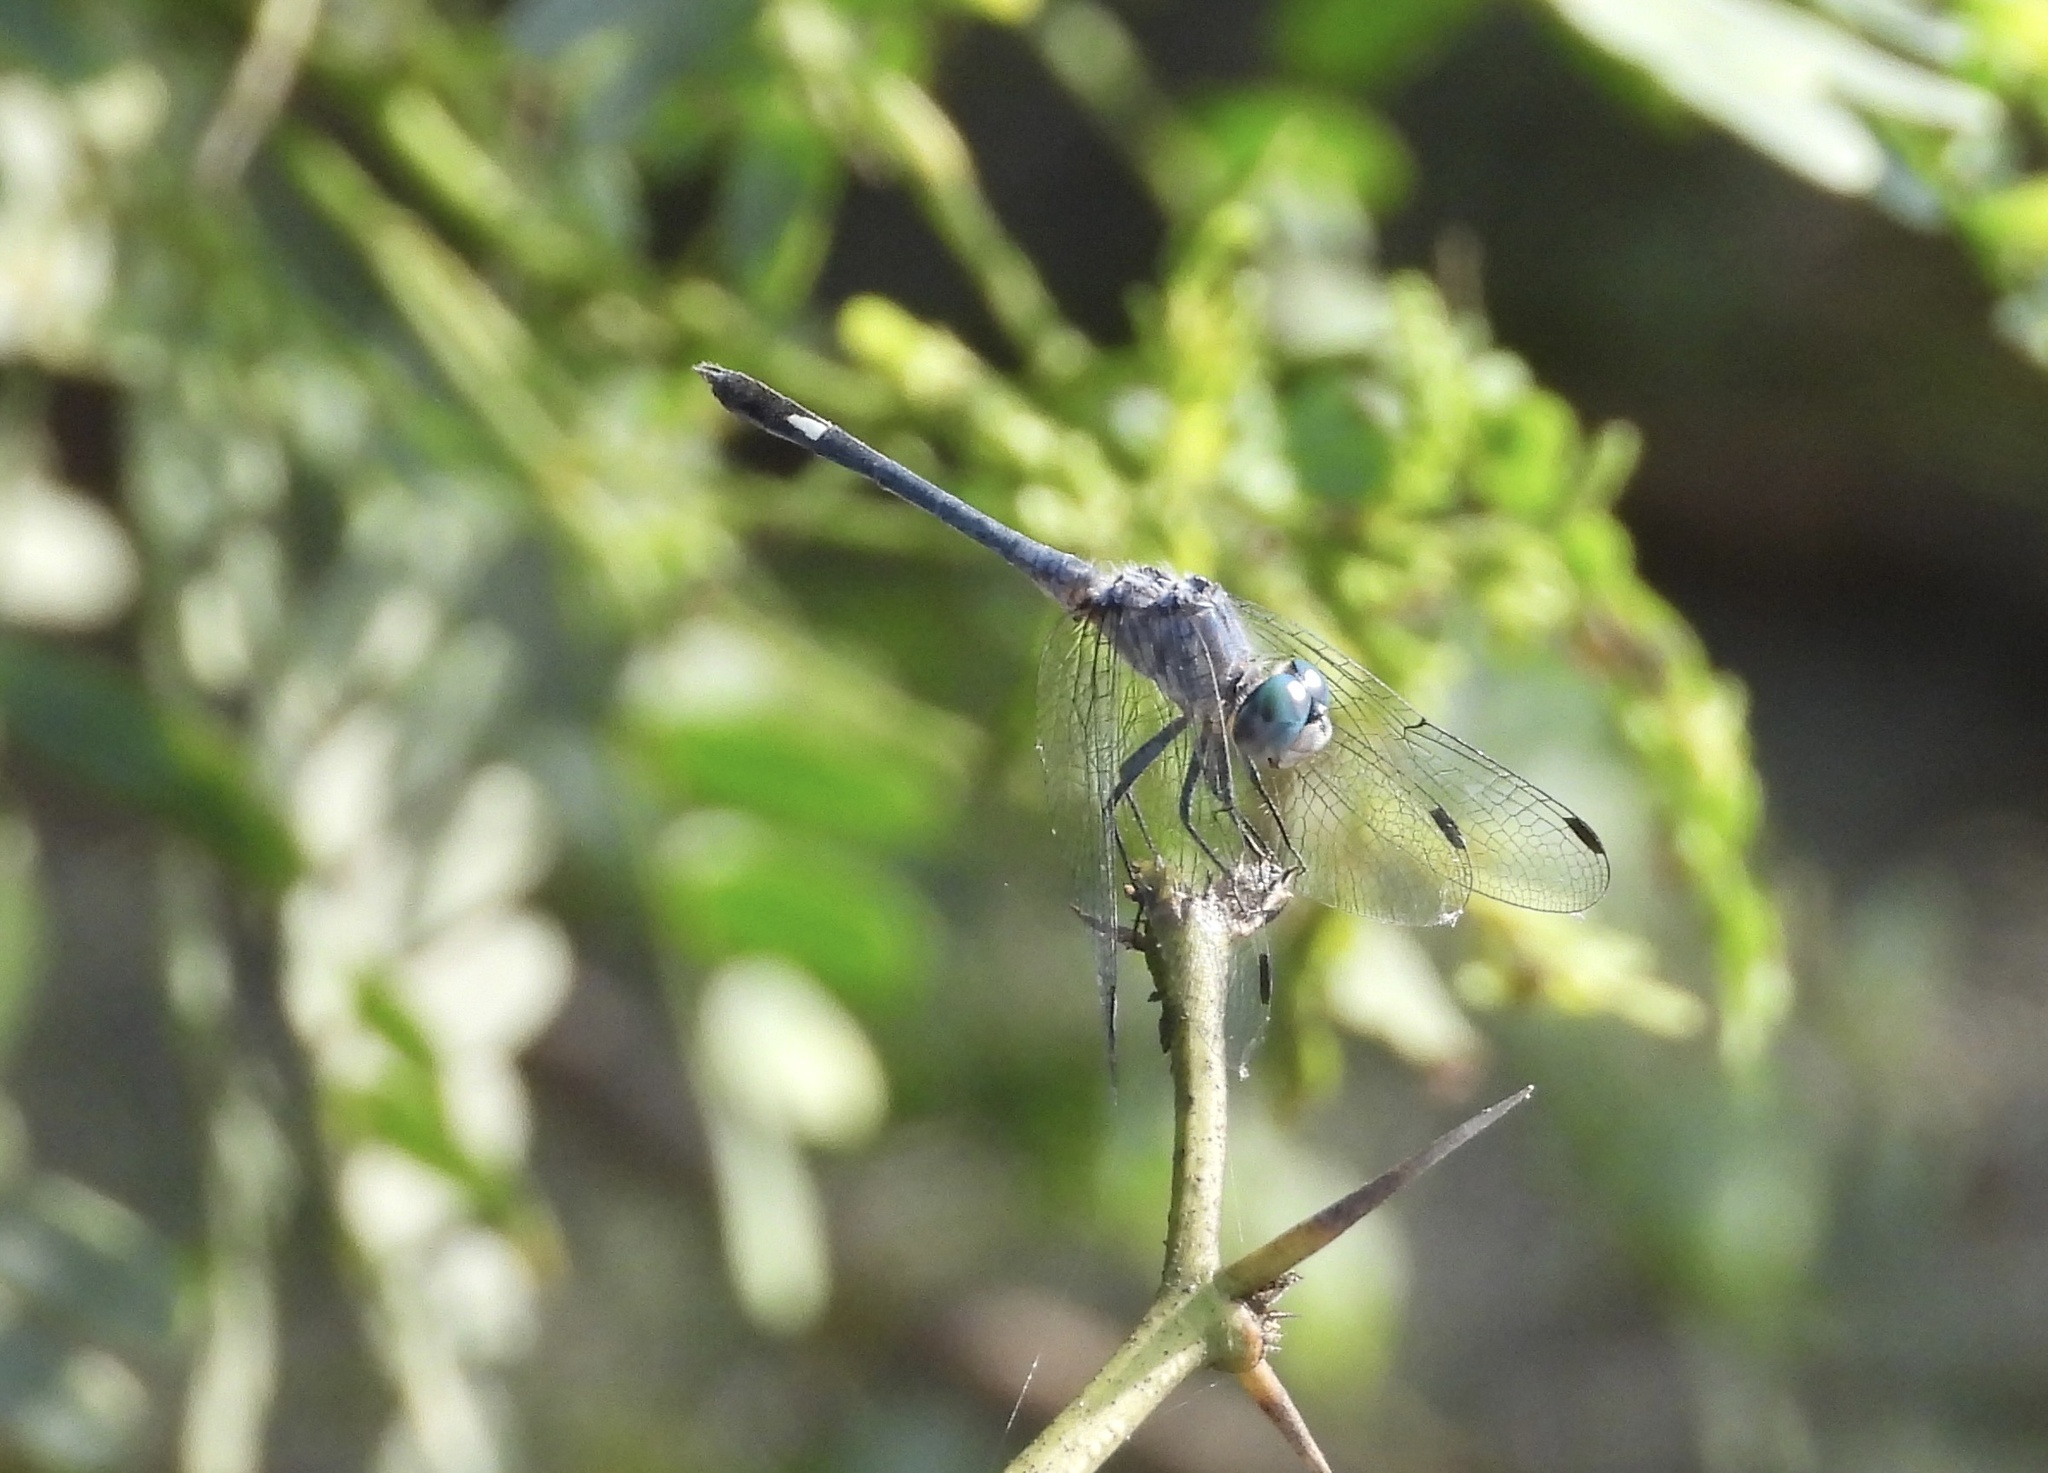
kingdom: Animalia
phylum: Arthropoda
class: Insecta
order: Odonata
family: Libellulidae
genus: Micrathyria
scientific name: Micrathyria aequalis
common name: Spot-tailed dasher
